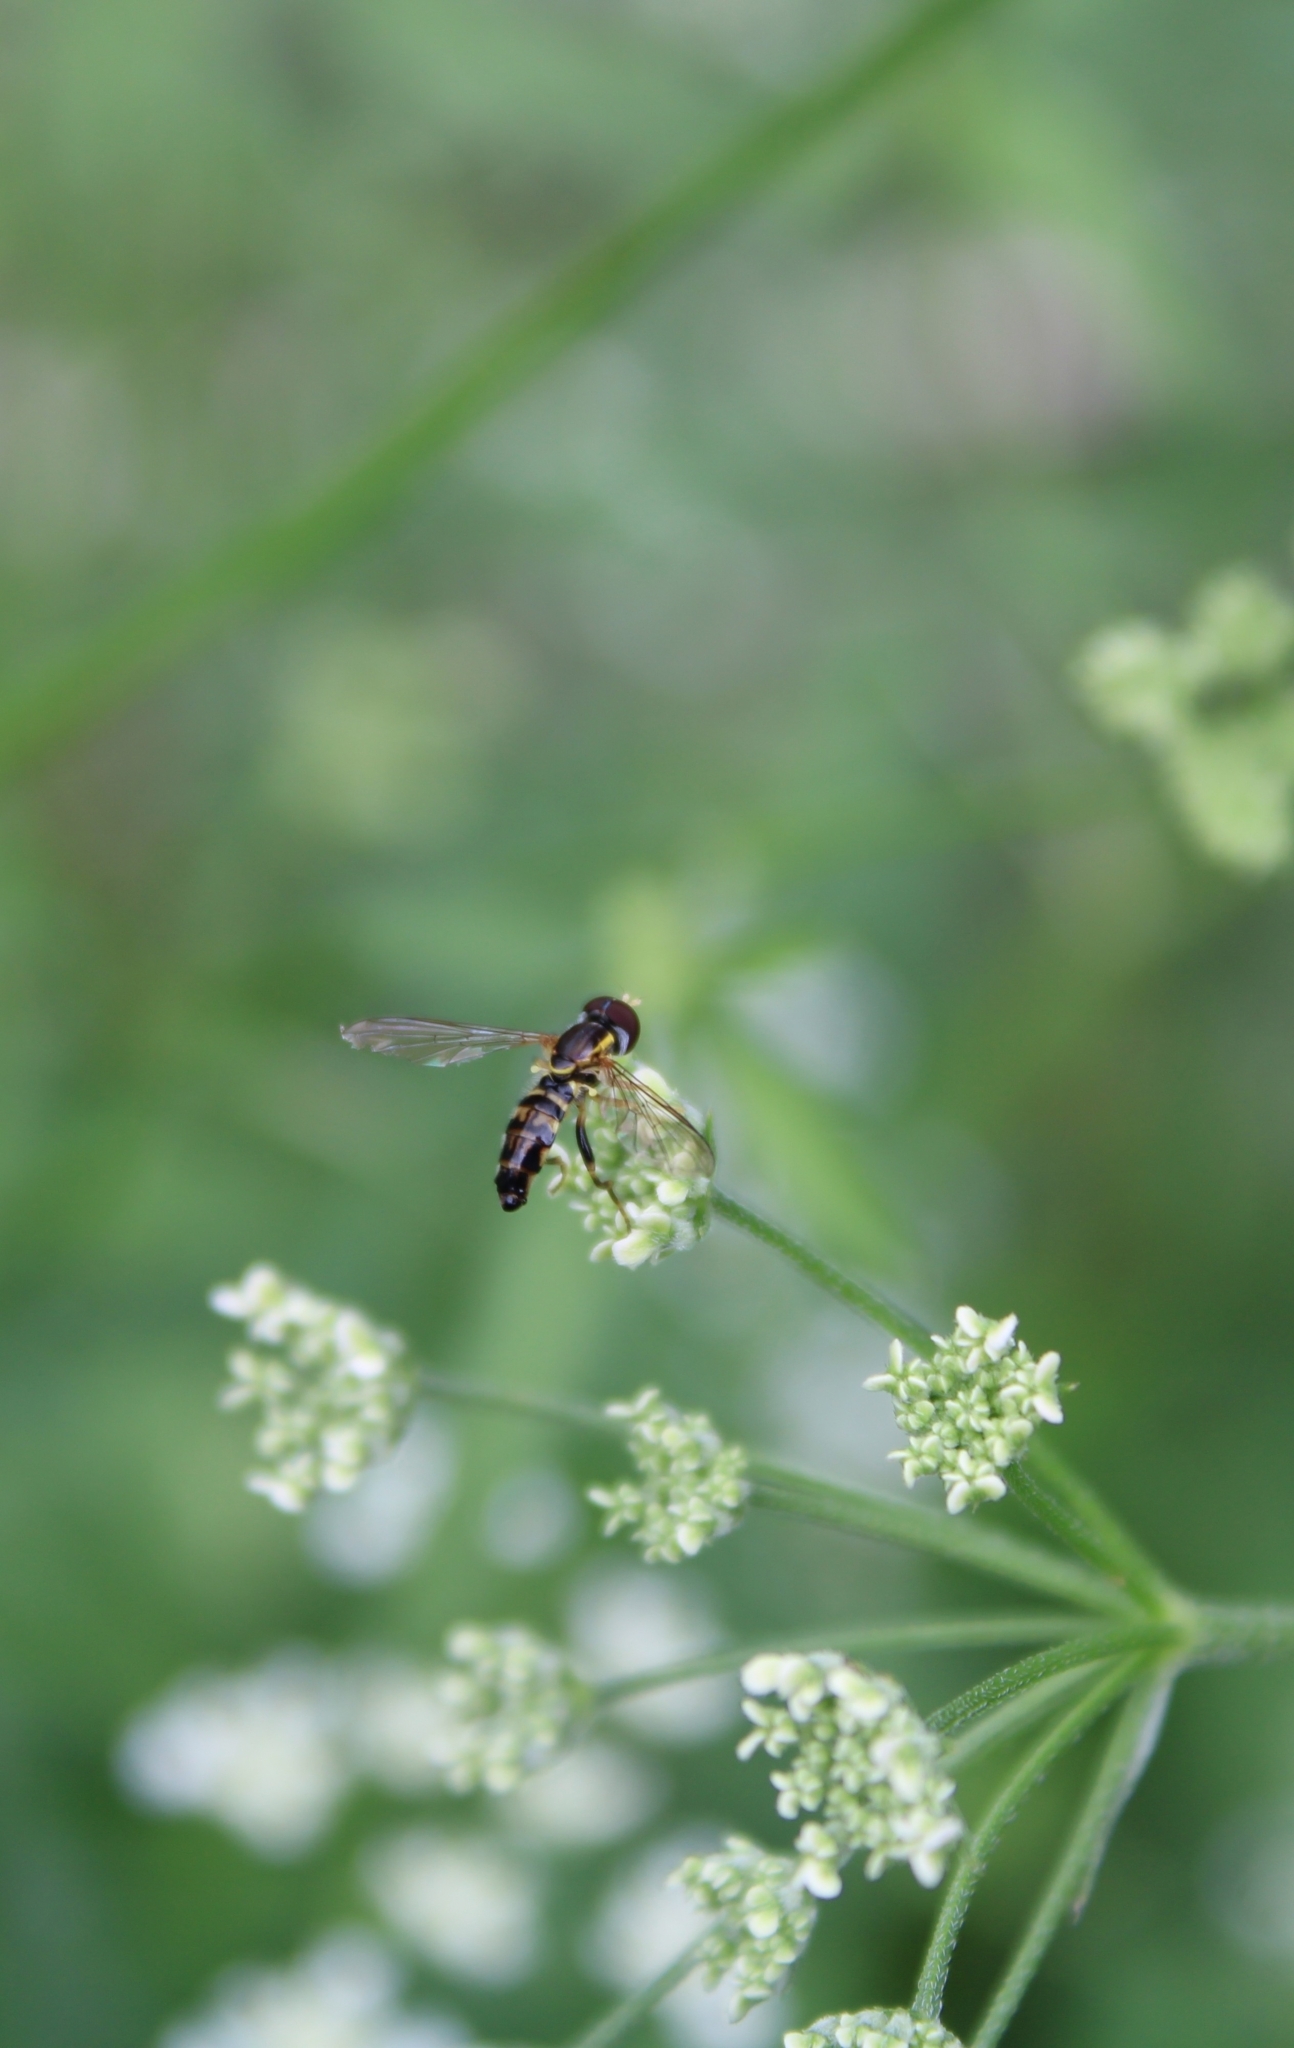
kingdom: Animalia
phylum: Arthropoda
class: Insecta
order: Diptera
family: Syrphidae
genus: Toxomerus
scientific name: Toxomerus geminatus
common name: Eastern calligrapher
